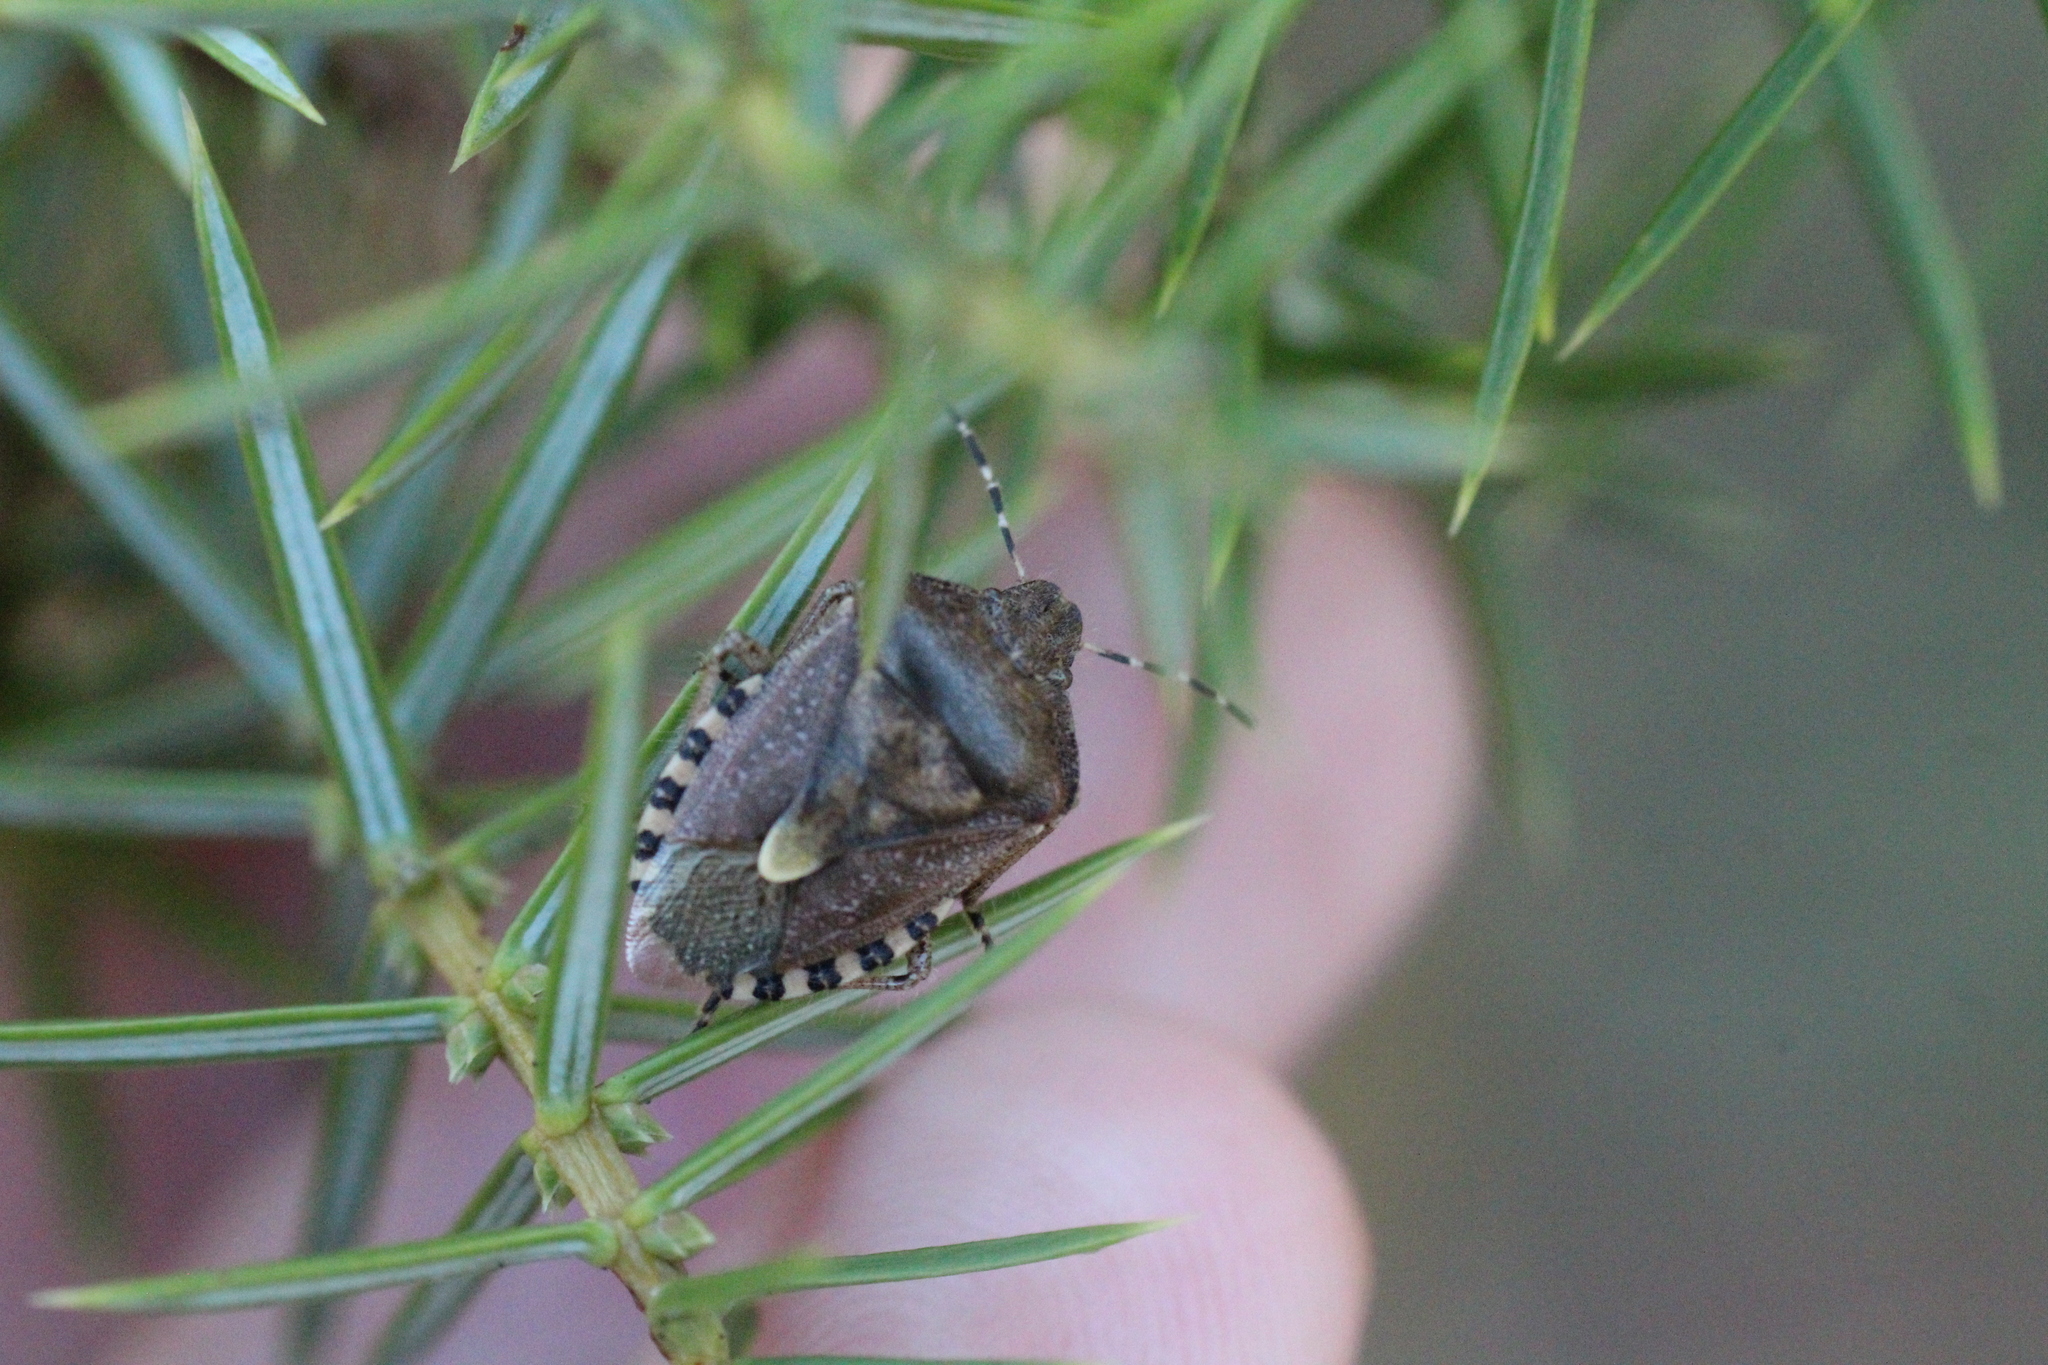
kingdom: Animalia
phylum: Arthropoda
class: Insecta
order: Hemiptera
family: Pentatomidae
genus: Dolycoris
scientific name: Dolycoris baccarum
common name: Sloe bug
